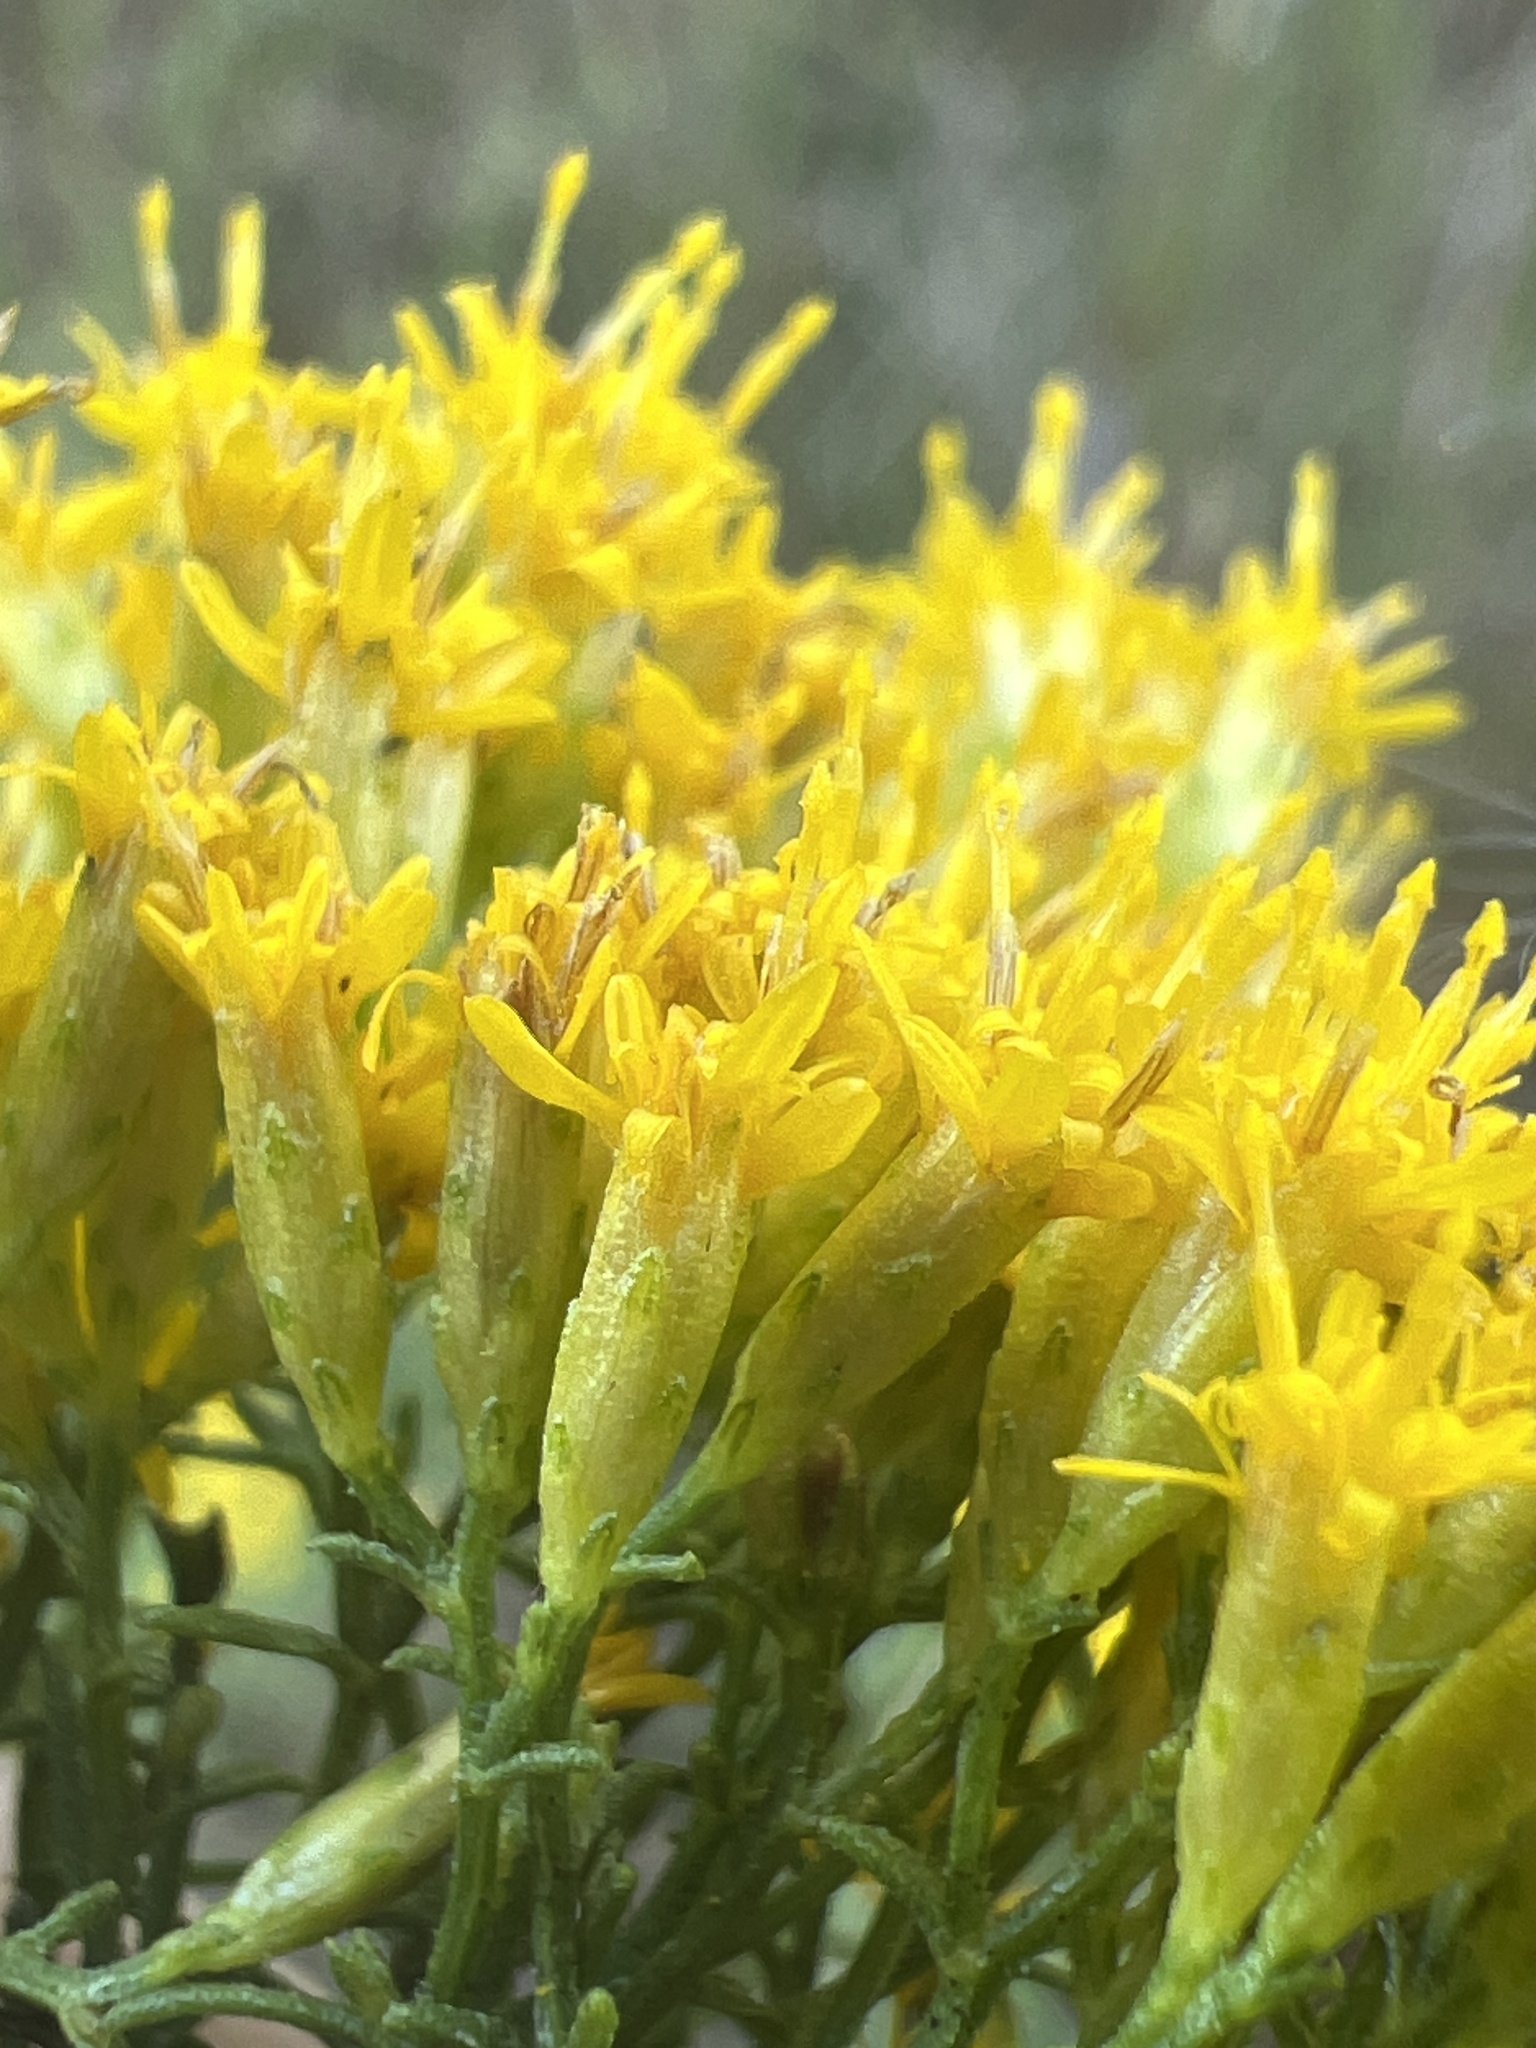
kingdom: Plantae
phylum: Tracheophyta
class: Magnoliopsida
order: Asterales
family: Asteraceae
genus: Euthamia
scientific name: Euthamia caroliniana
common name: Coastal plain goldentop
